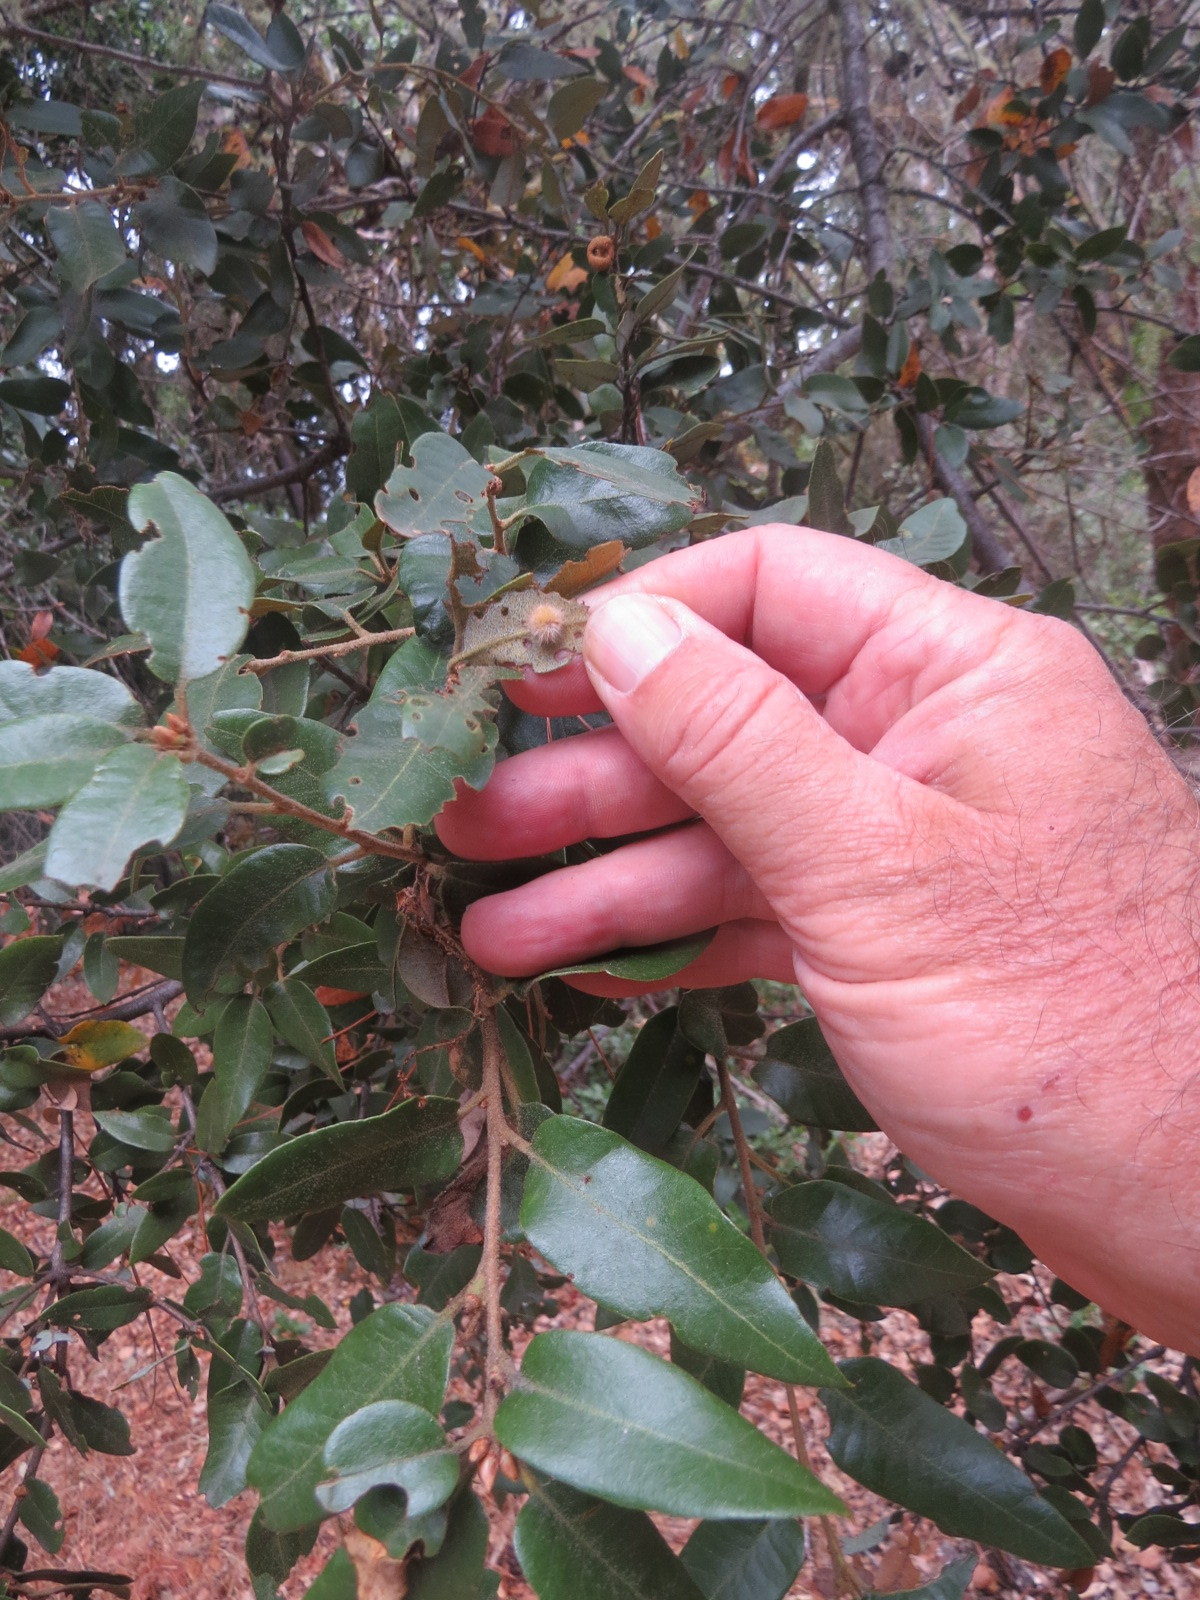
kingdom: Plantae
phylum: Tracheophyta
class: Magnoliopsida
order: Fagales
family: Fagaceae
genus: Quercus
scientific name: Quercus chrysolepis
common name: Canyon live oak
